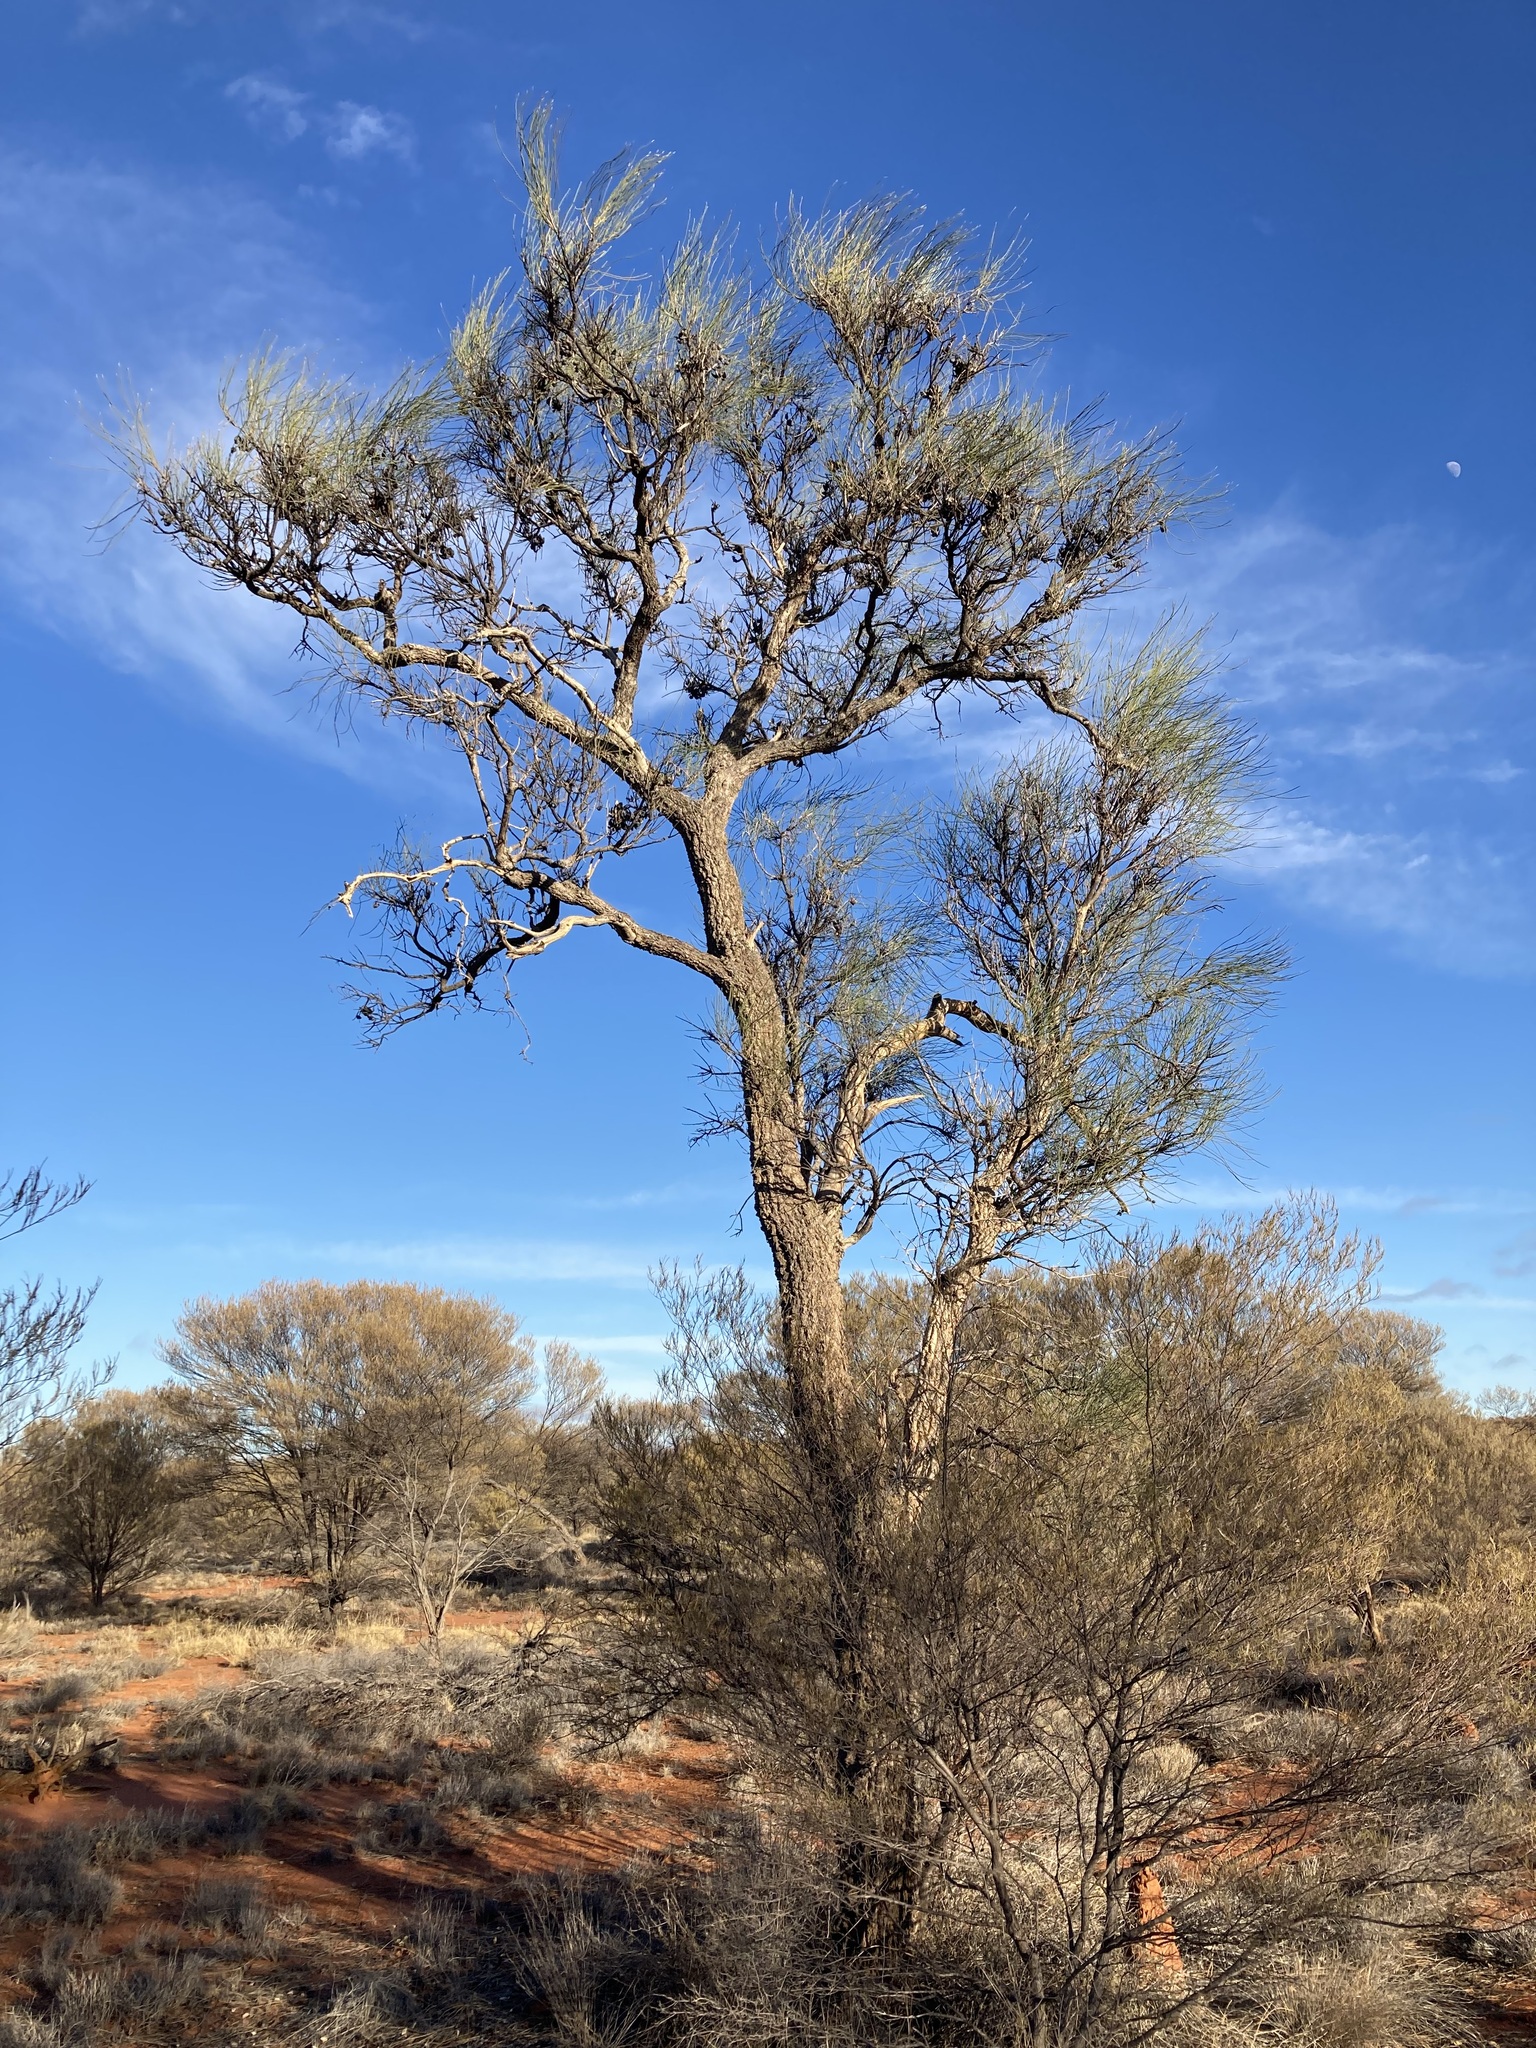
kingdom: Plantae
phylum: Tracheophyta
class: Magnoliopsida
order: Proteales
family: Proteaceae
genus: Hakea
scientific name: Hakea lorea
